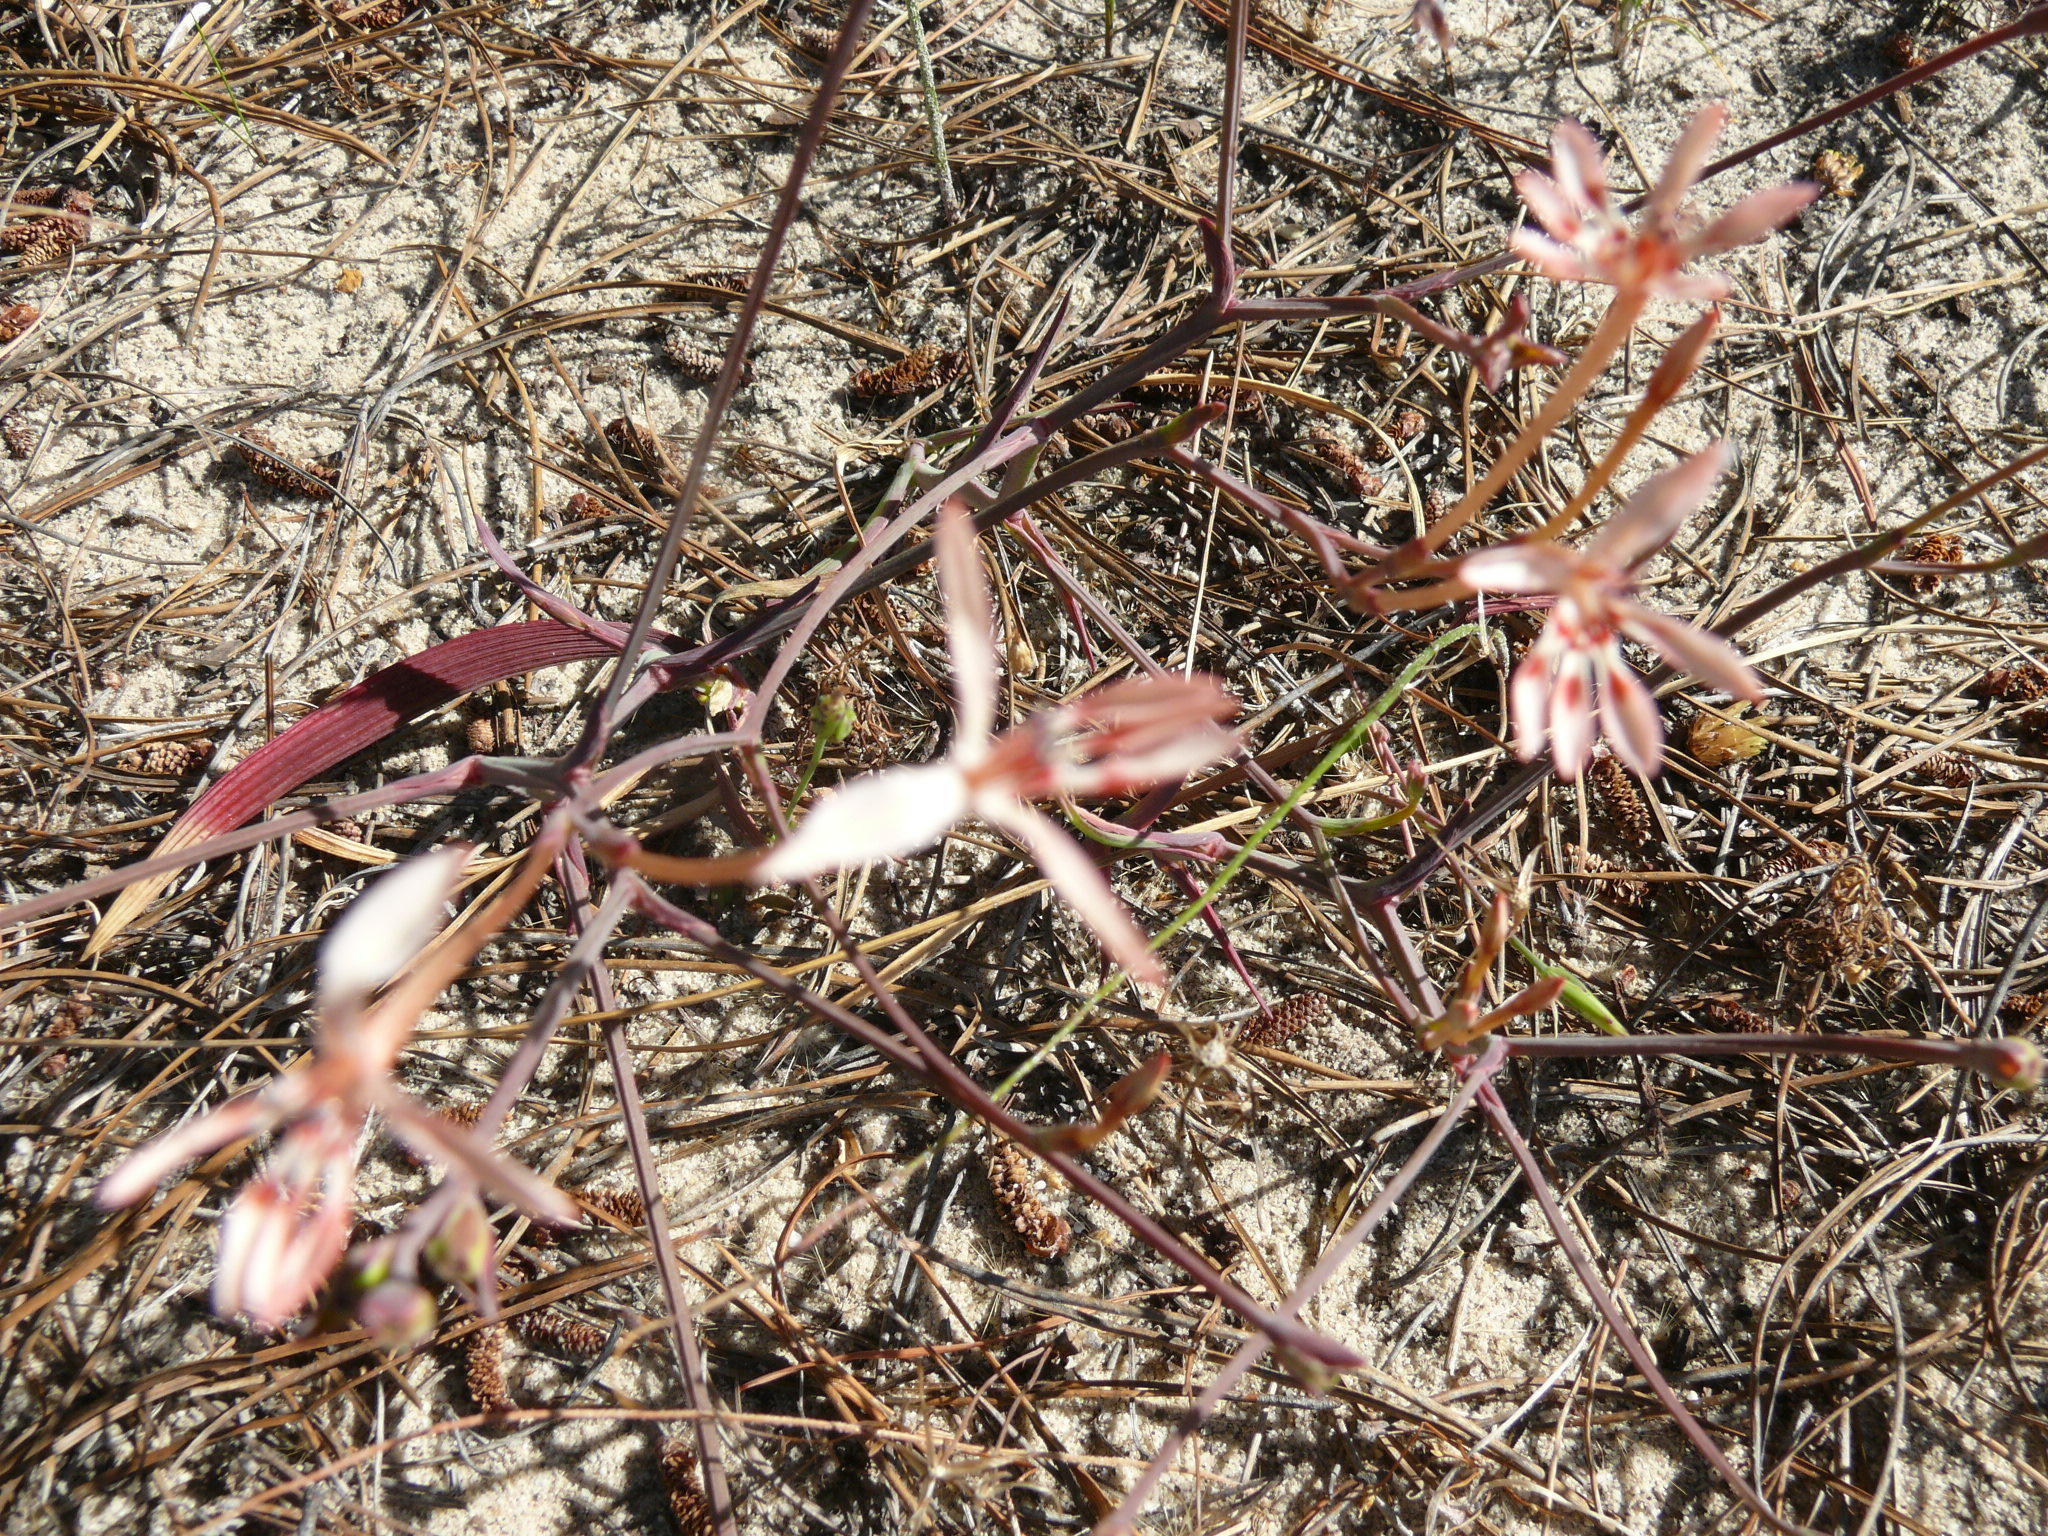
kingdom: Plantae
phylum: Tracheophyta
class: Liliopsida
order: Asparagales
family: Iridaceae
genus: Lapeirousia
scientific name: Lapeirousia anceps
